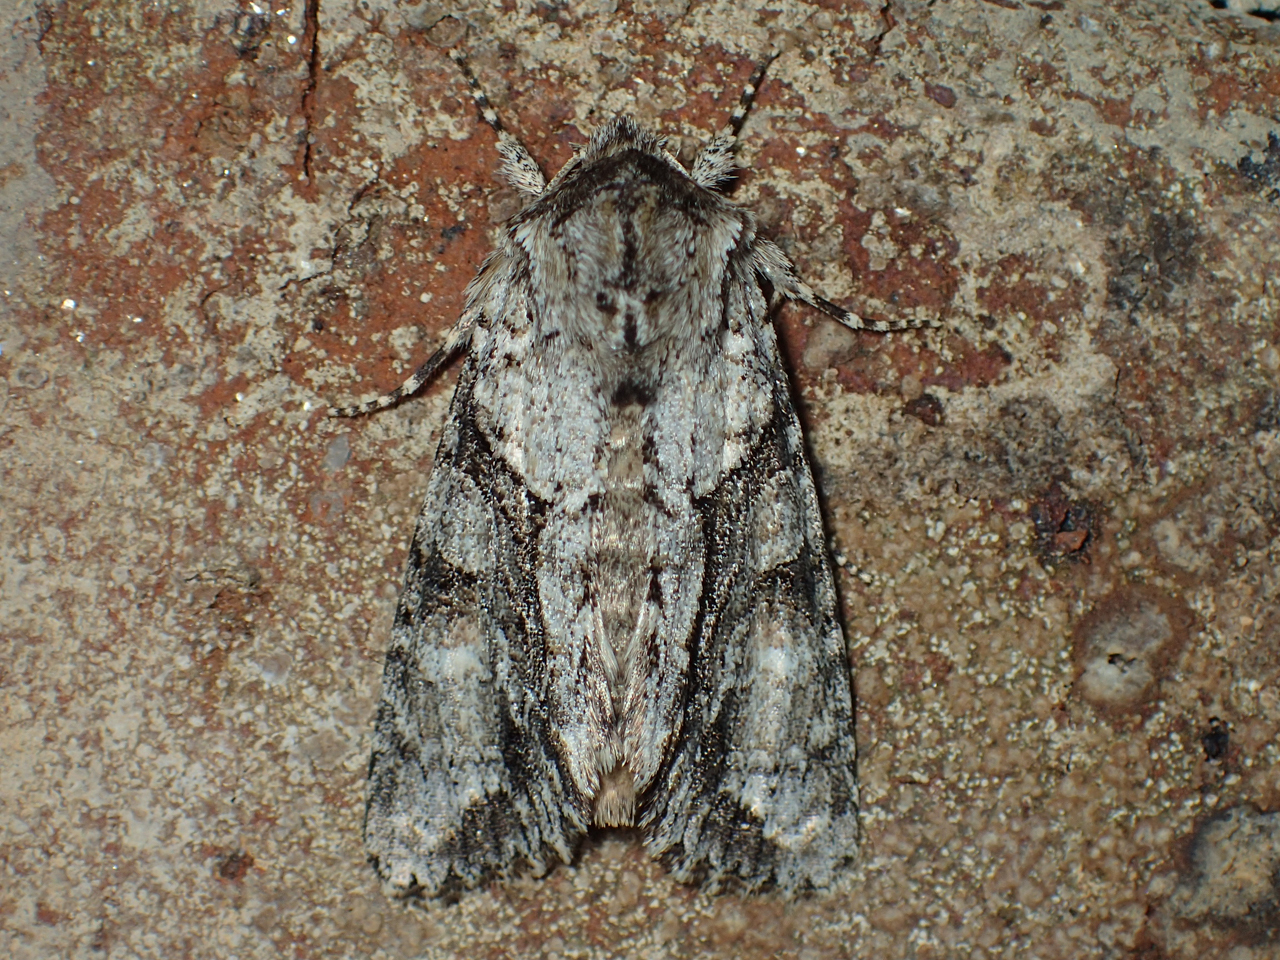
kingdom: Animalia
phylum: Arthropoda
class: Insecta
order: Lepidoptera
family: Noctuidae
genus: Achatia
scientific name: Achatia distincta
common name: Distinct quaker
